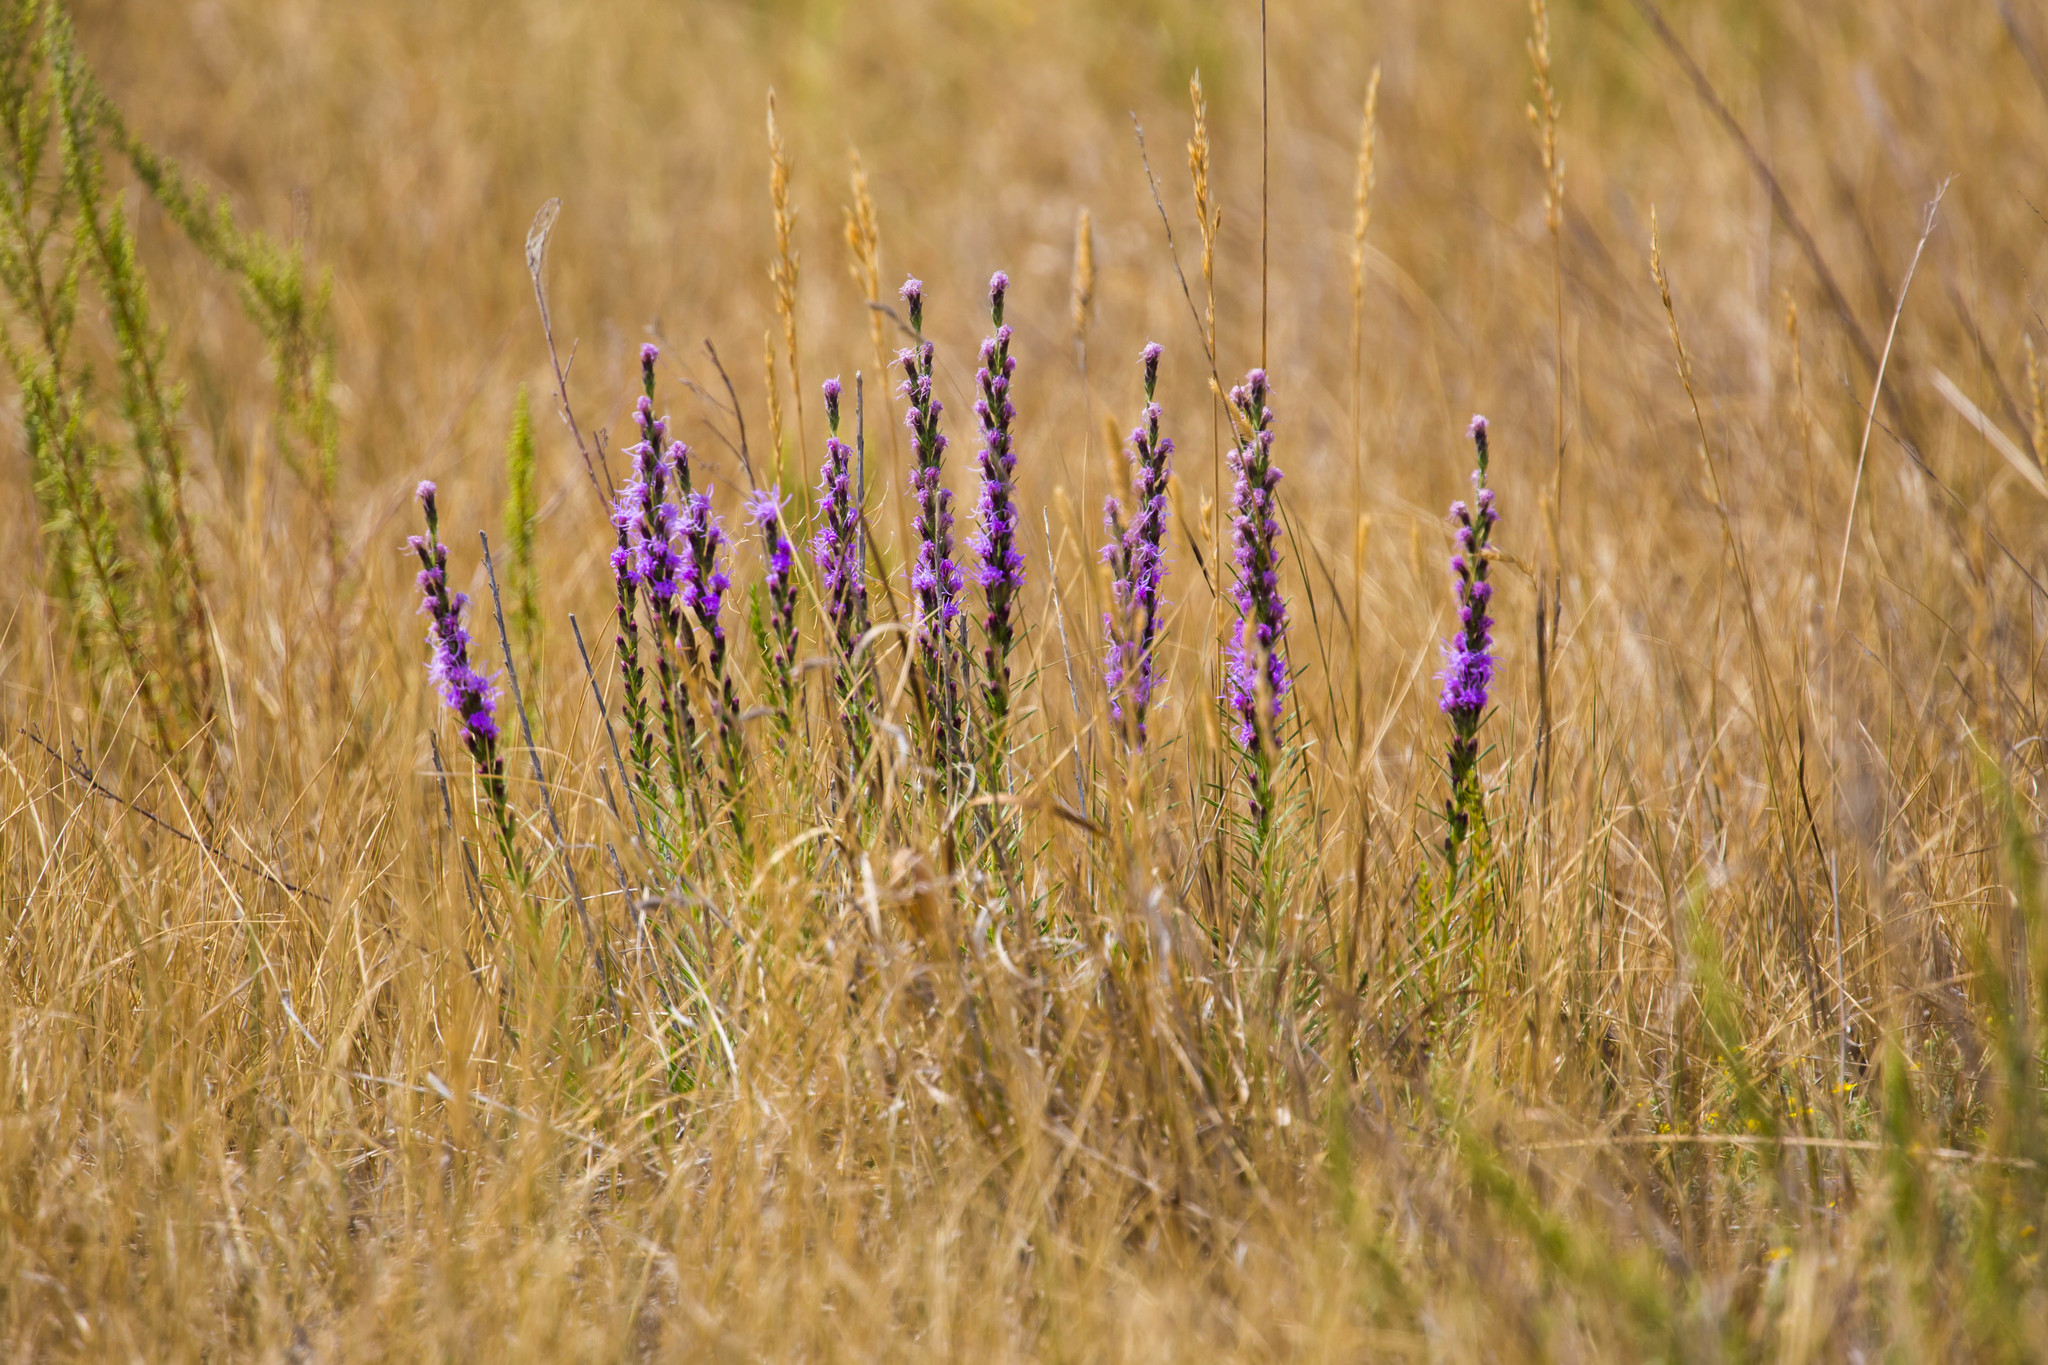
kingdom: Plantae
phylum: Tracheophyta
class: Magnoliopsida
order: Asterales
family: Asteraceae
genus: Liatris
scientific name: Liatris punctata
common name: Dotted gayfeather
